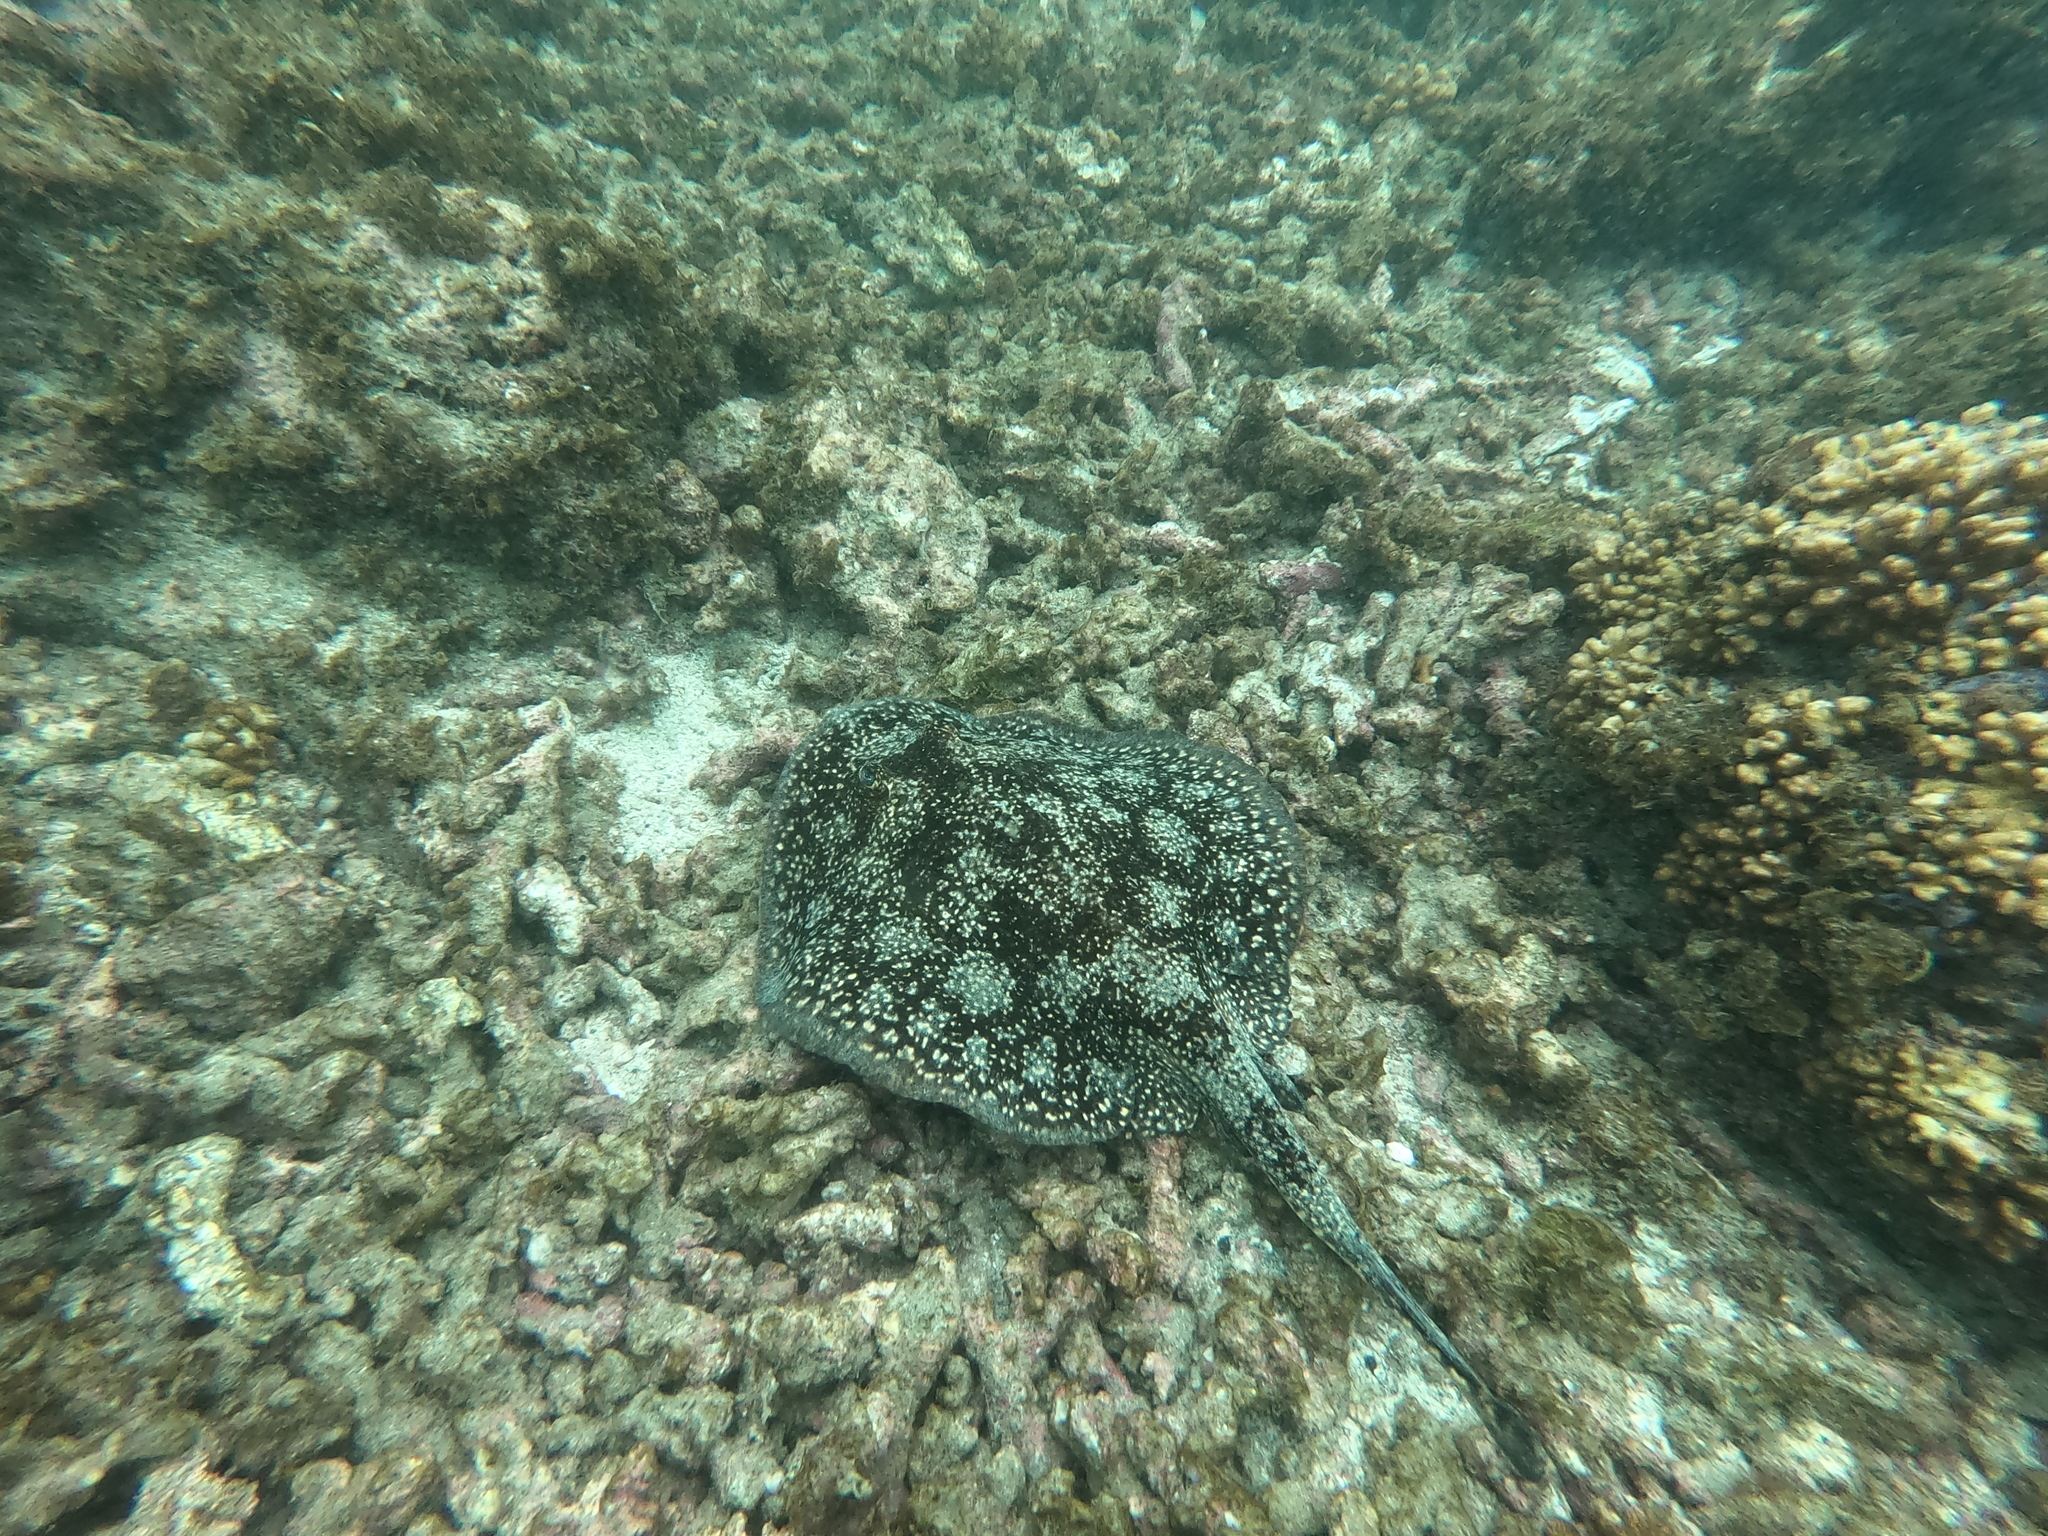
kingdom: Animalia
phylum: Chordata
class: Elasmobranchii
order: Myliobatiformes
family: Urotrygonidae
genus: Urobatis
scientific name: Urobatis tumbesensis
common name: Tumbes round stingray
